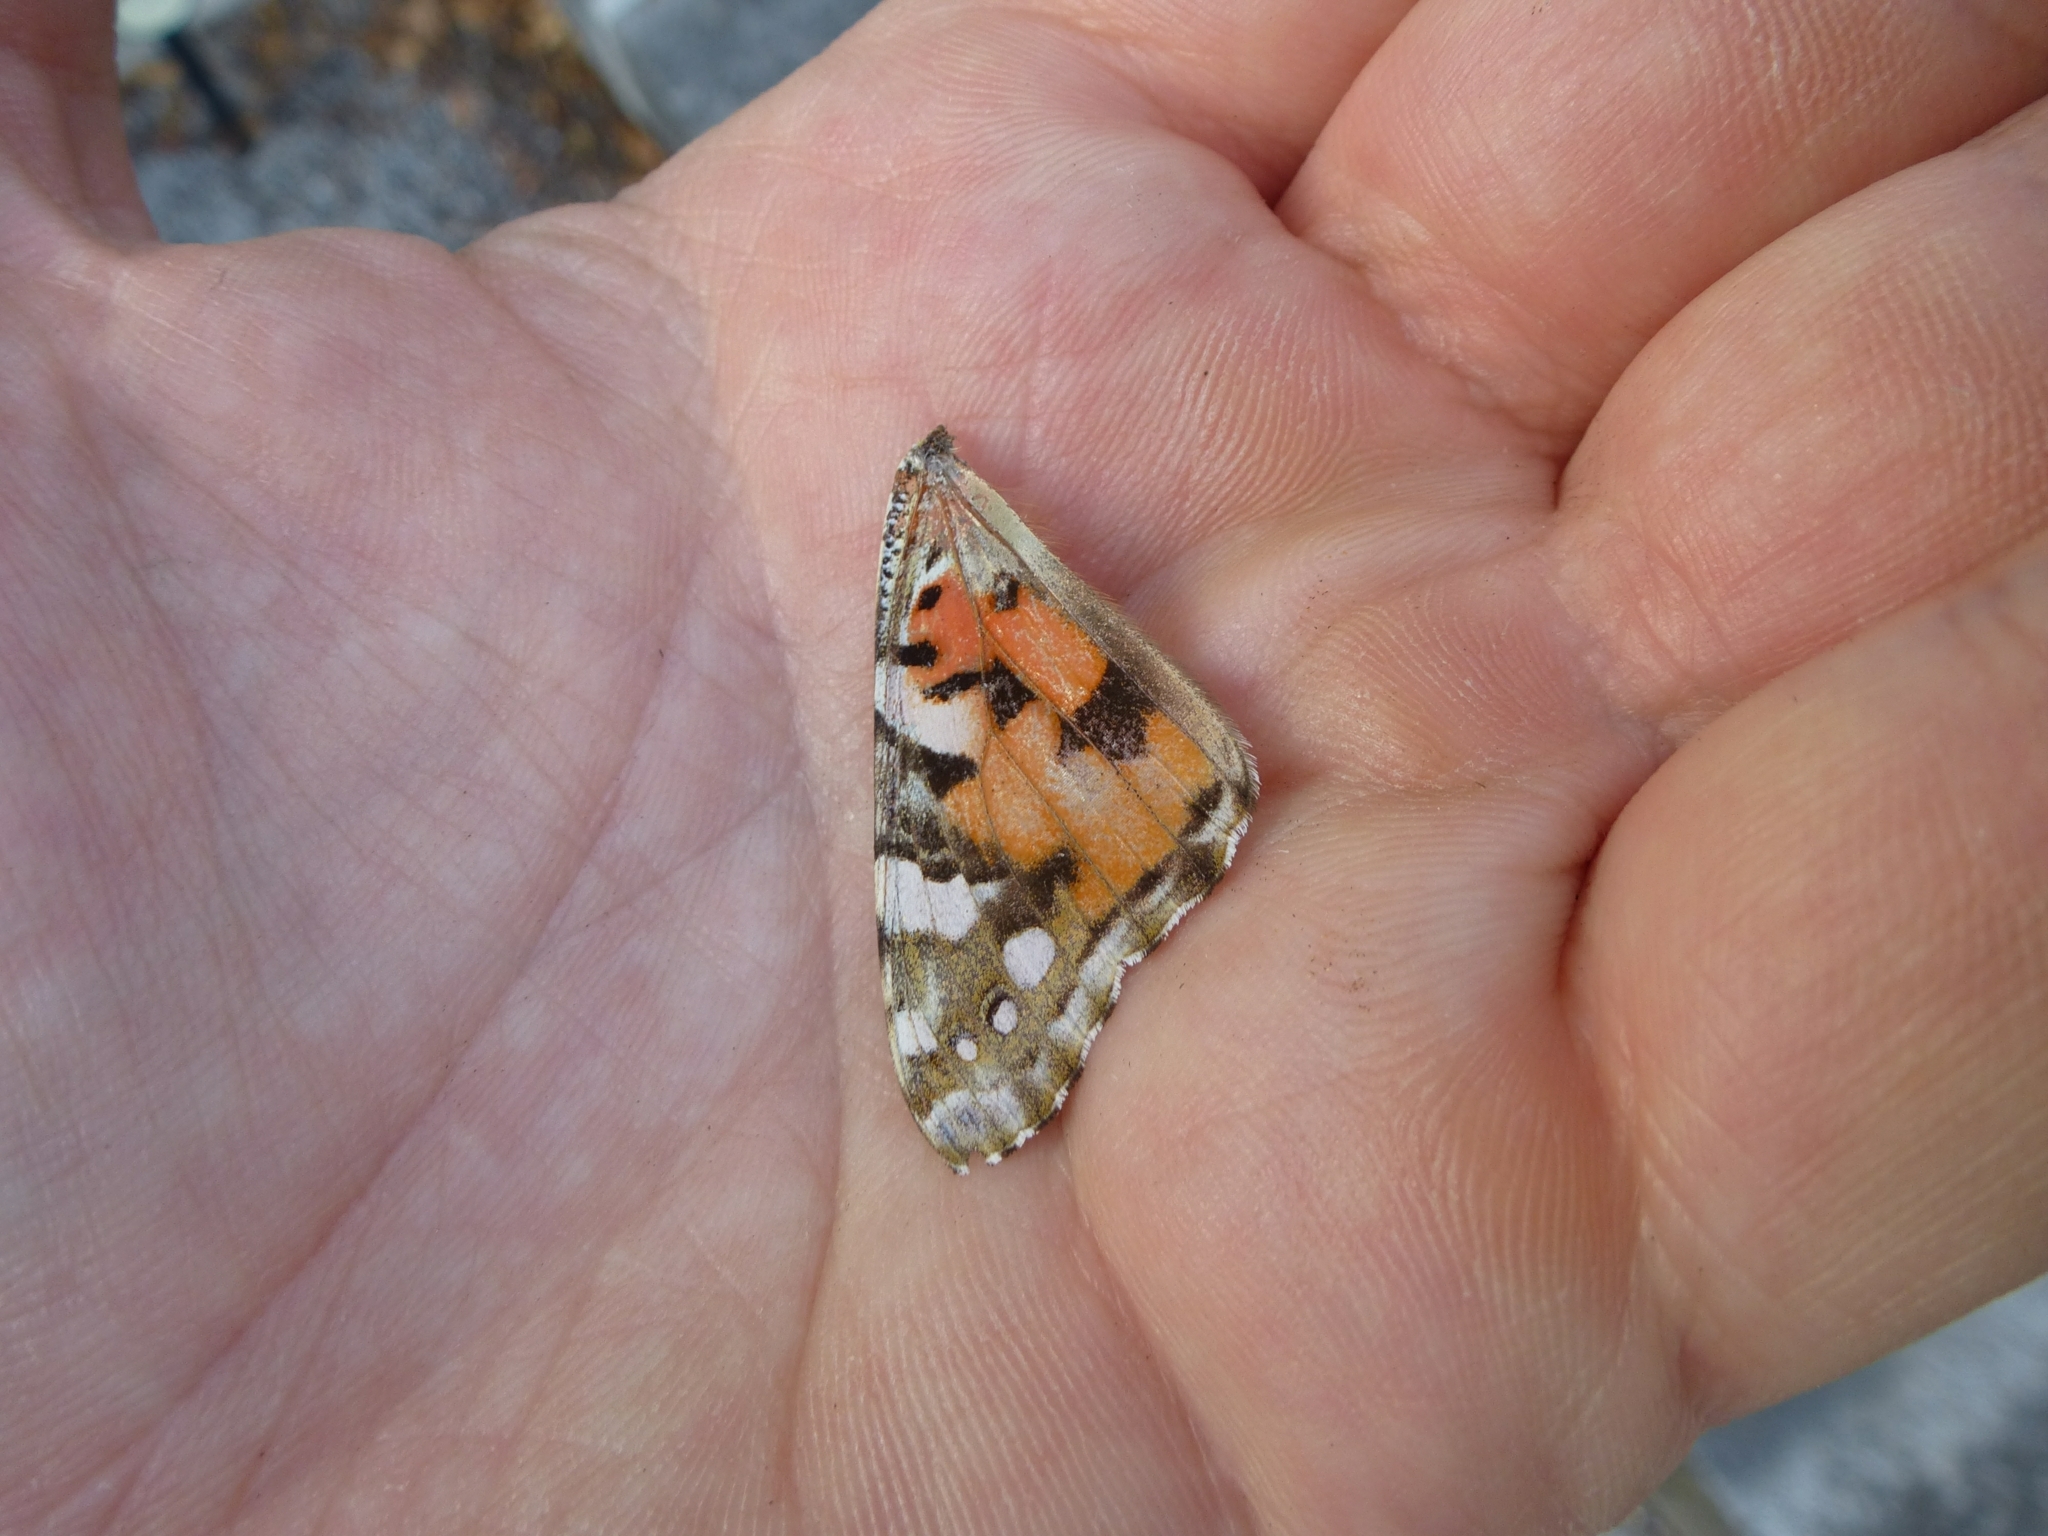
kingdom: Animalia
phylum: Arthropoda
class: Insecta
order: Lepidoptera
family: Nymphalidae
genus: Vanessa
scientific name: Vanessa cardui
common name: Painted lady
